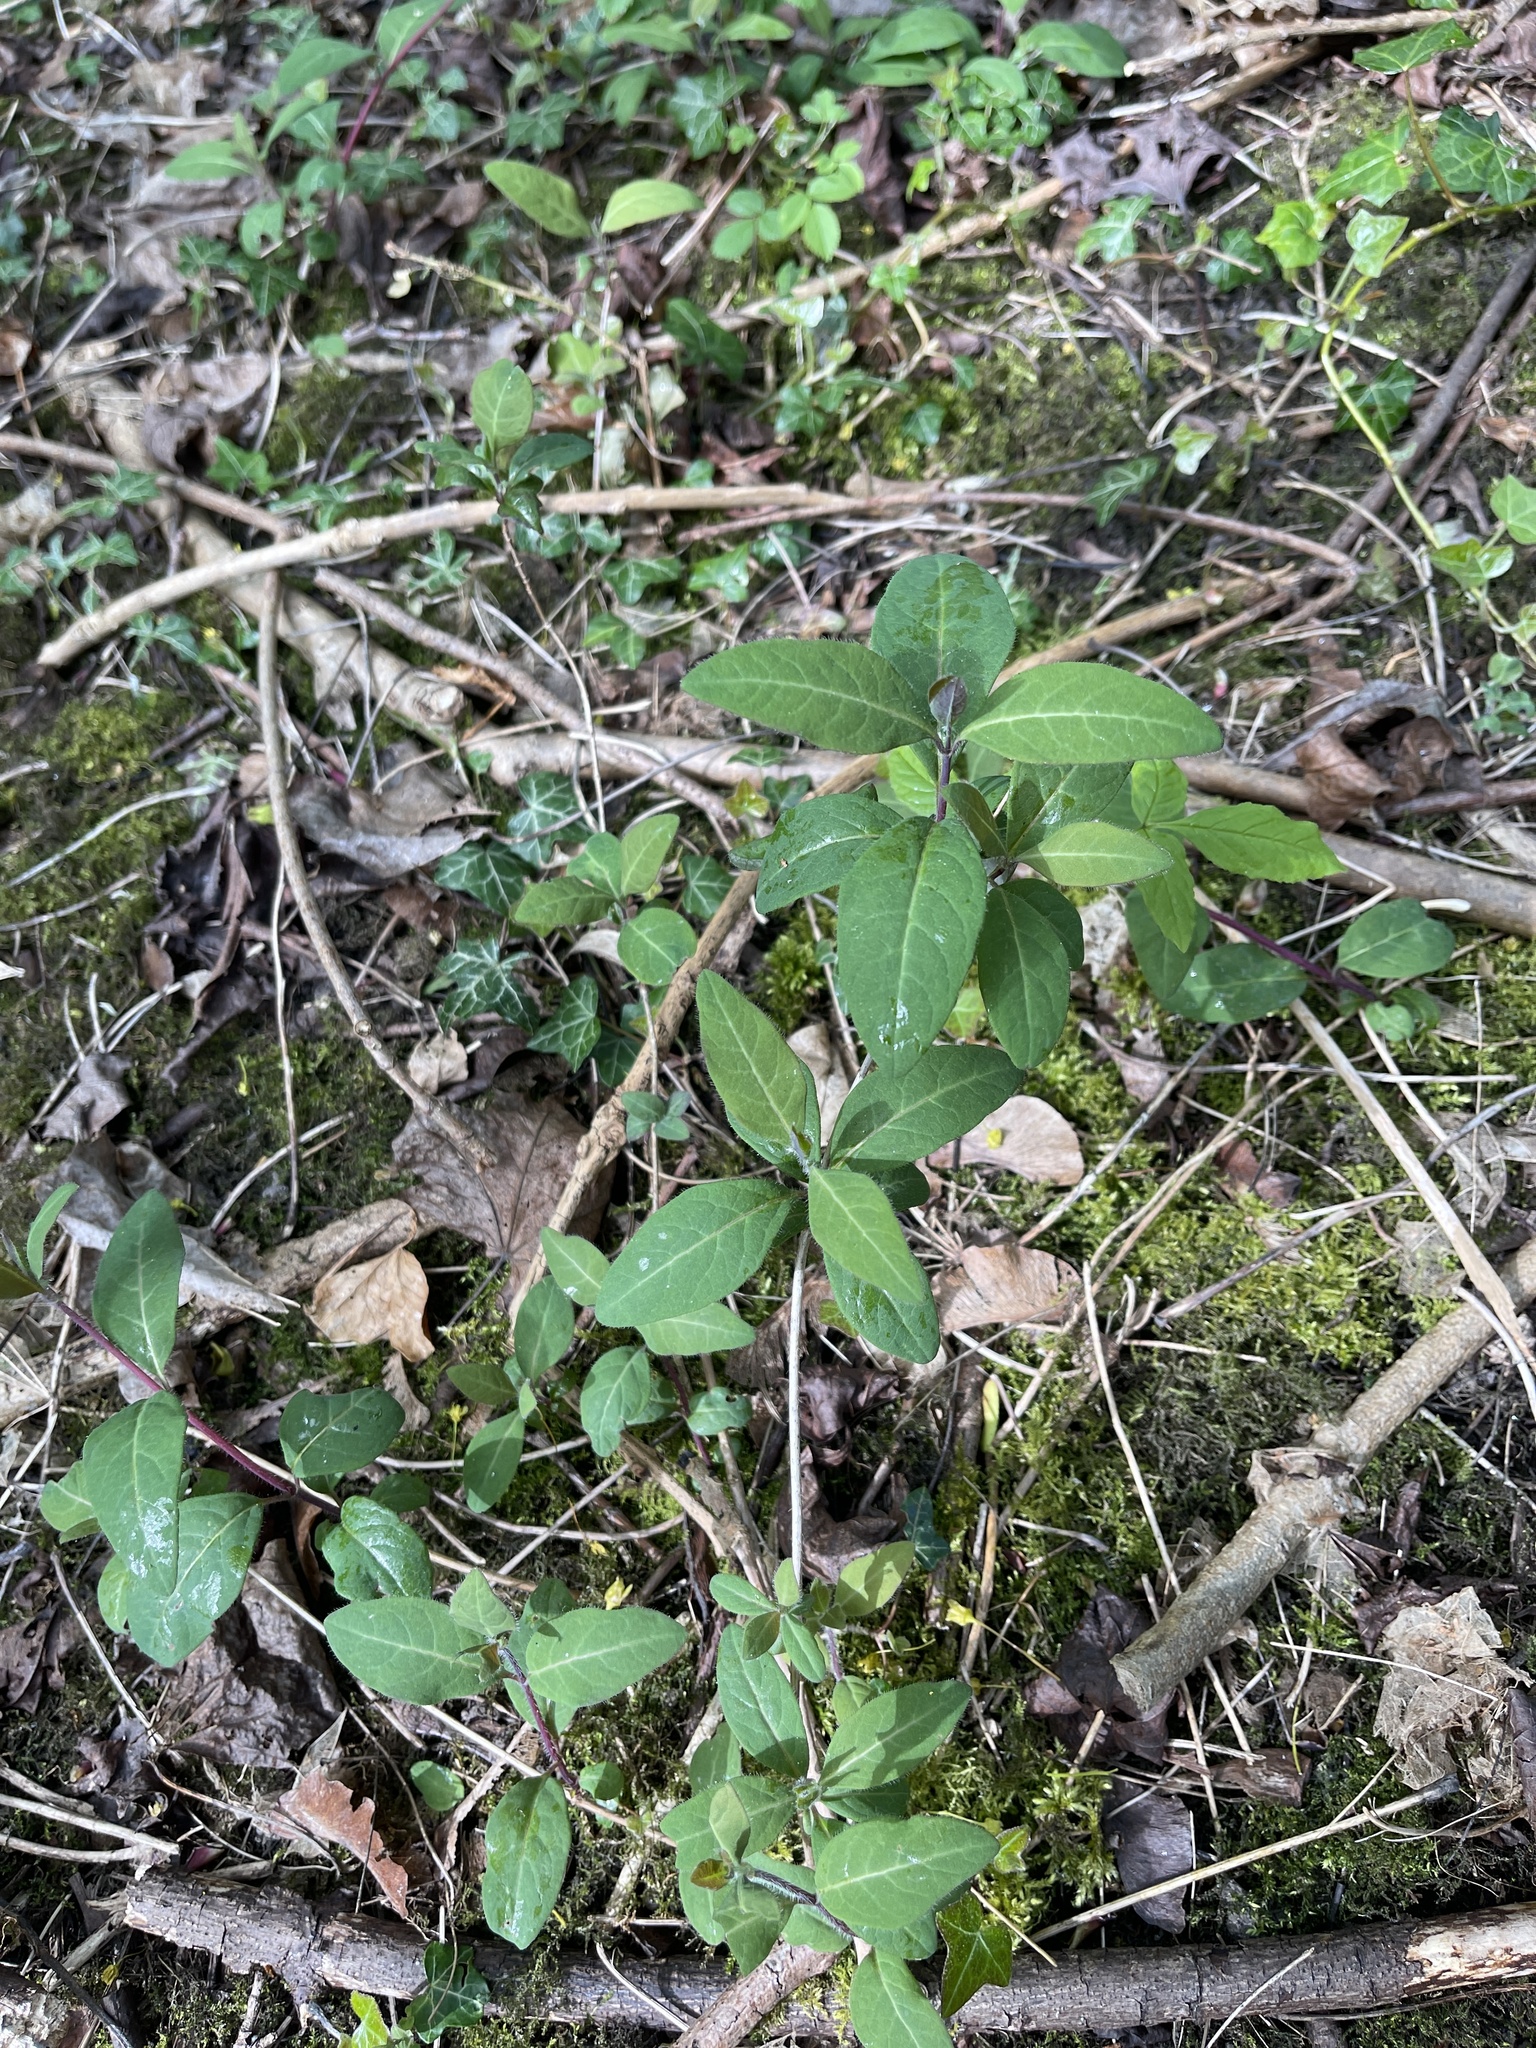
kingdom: Plantae
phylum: Tracheophyta
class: Magnoliopsida
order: Dipsacales
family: Caprifoliaceae
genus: Lonicera
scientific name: Lonicera periclymenum
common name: European honeysuckle
